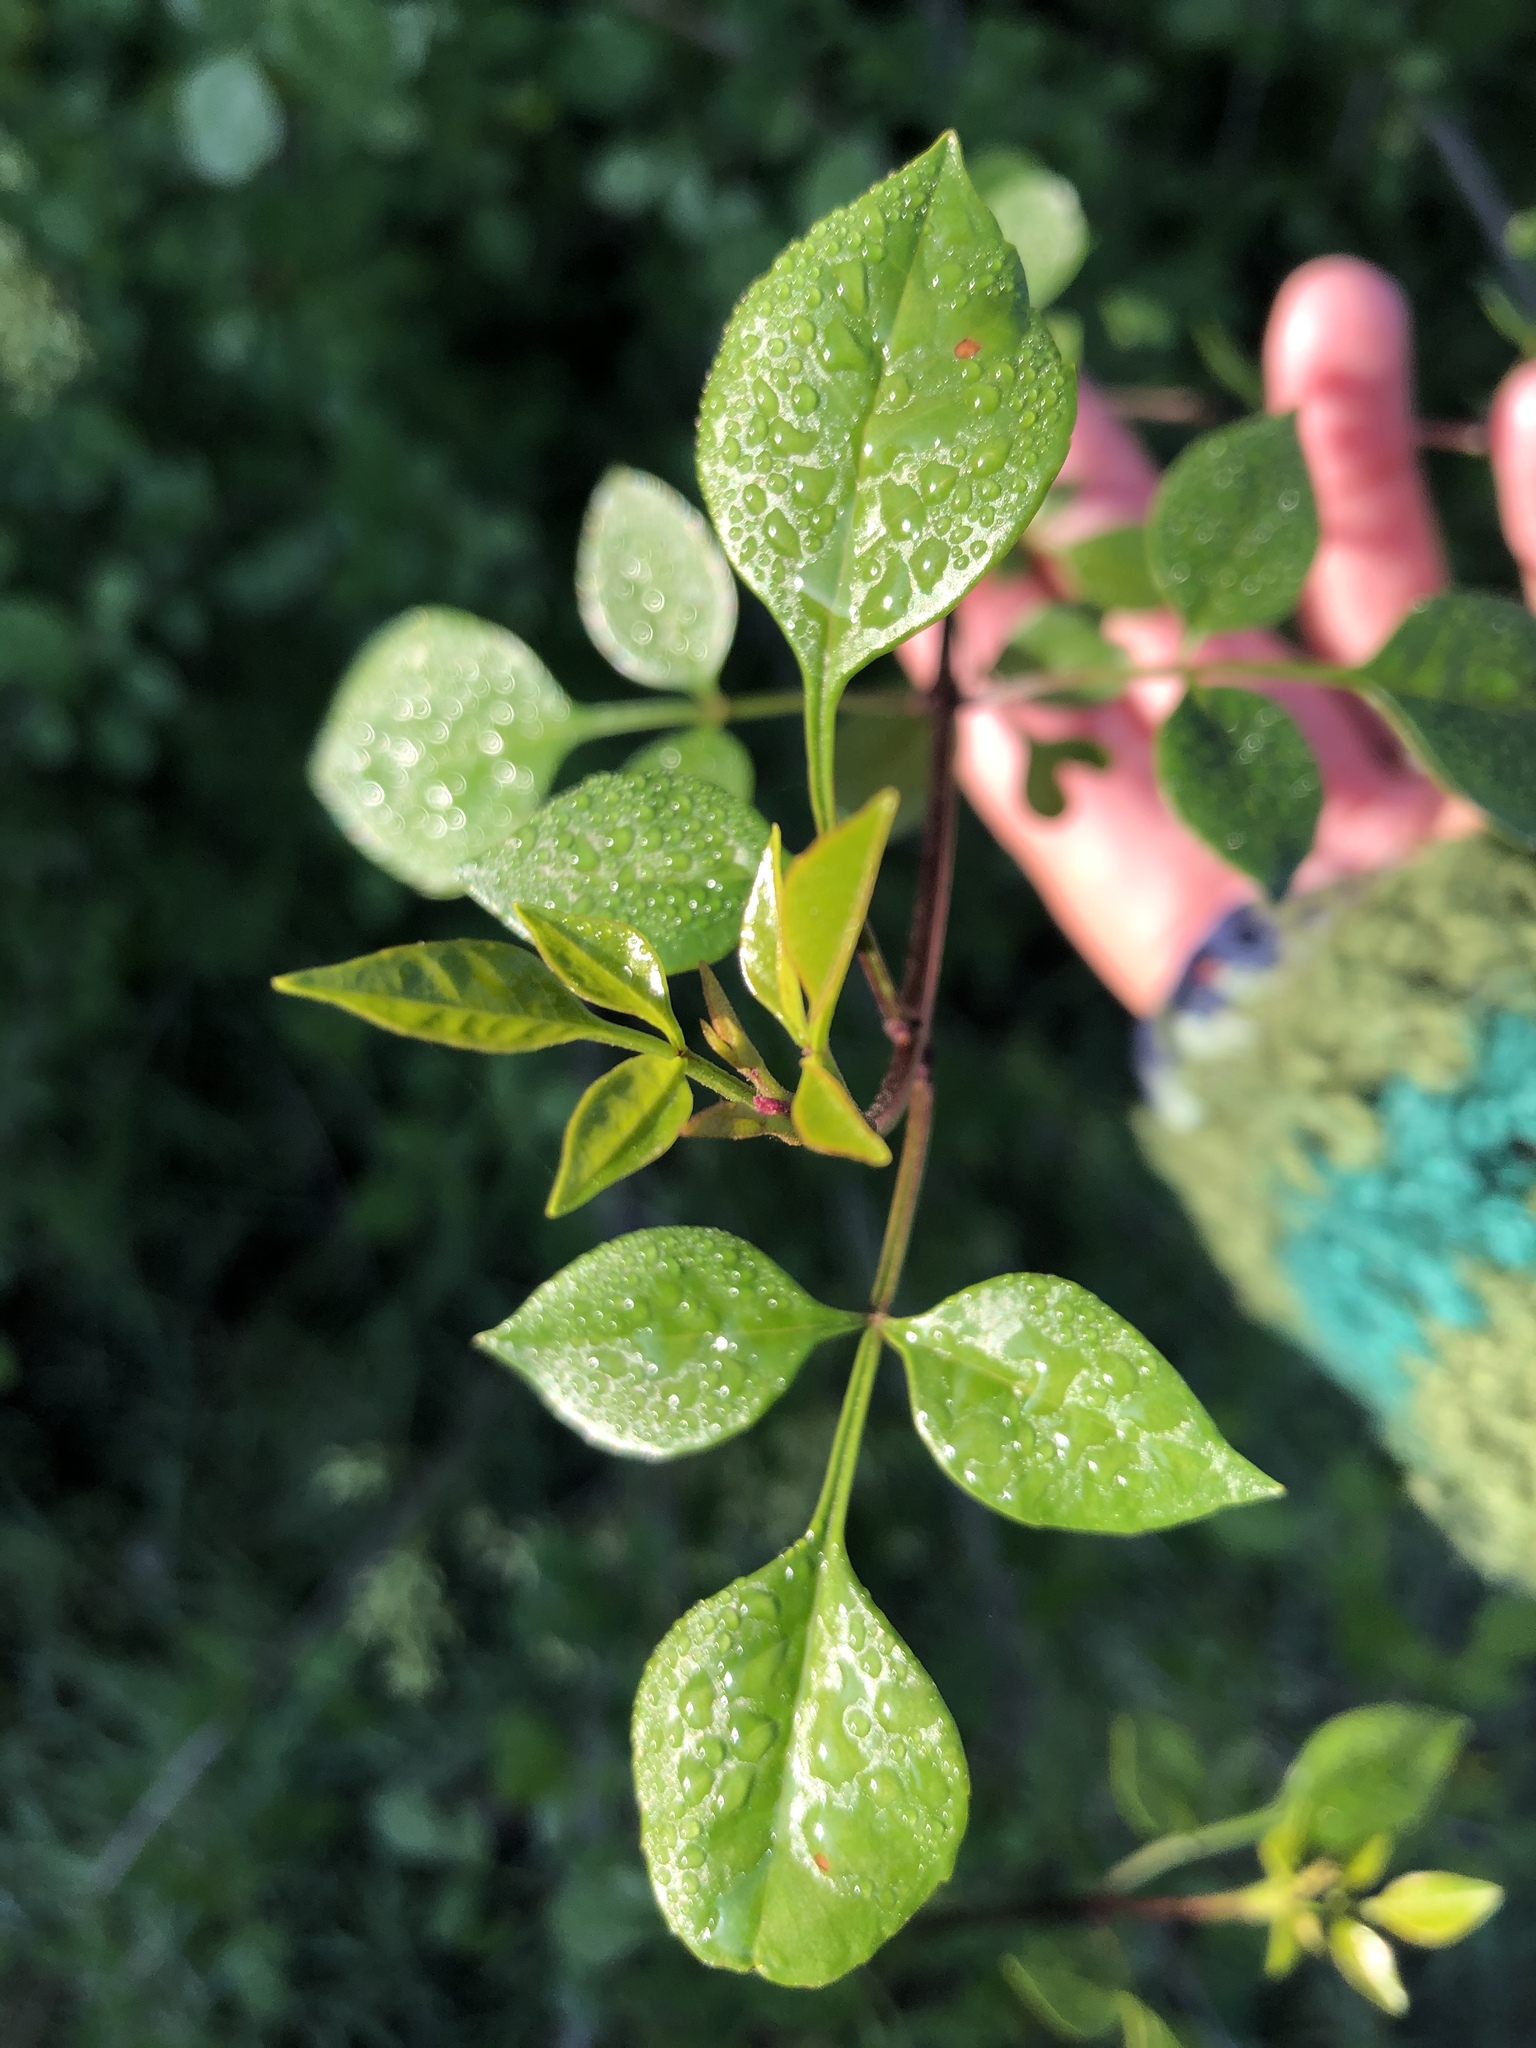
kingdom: Plantae
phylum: Tracheophyta
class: Magnoliopsida
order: Lamiales
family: Oleaceae
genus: Fraxinus
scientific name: Fraxinus dipetala
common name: California ash
